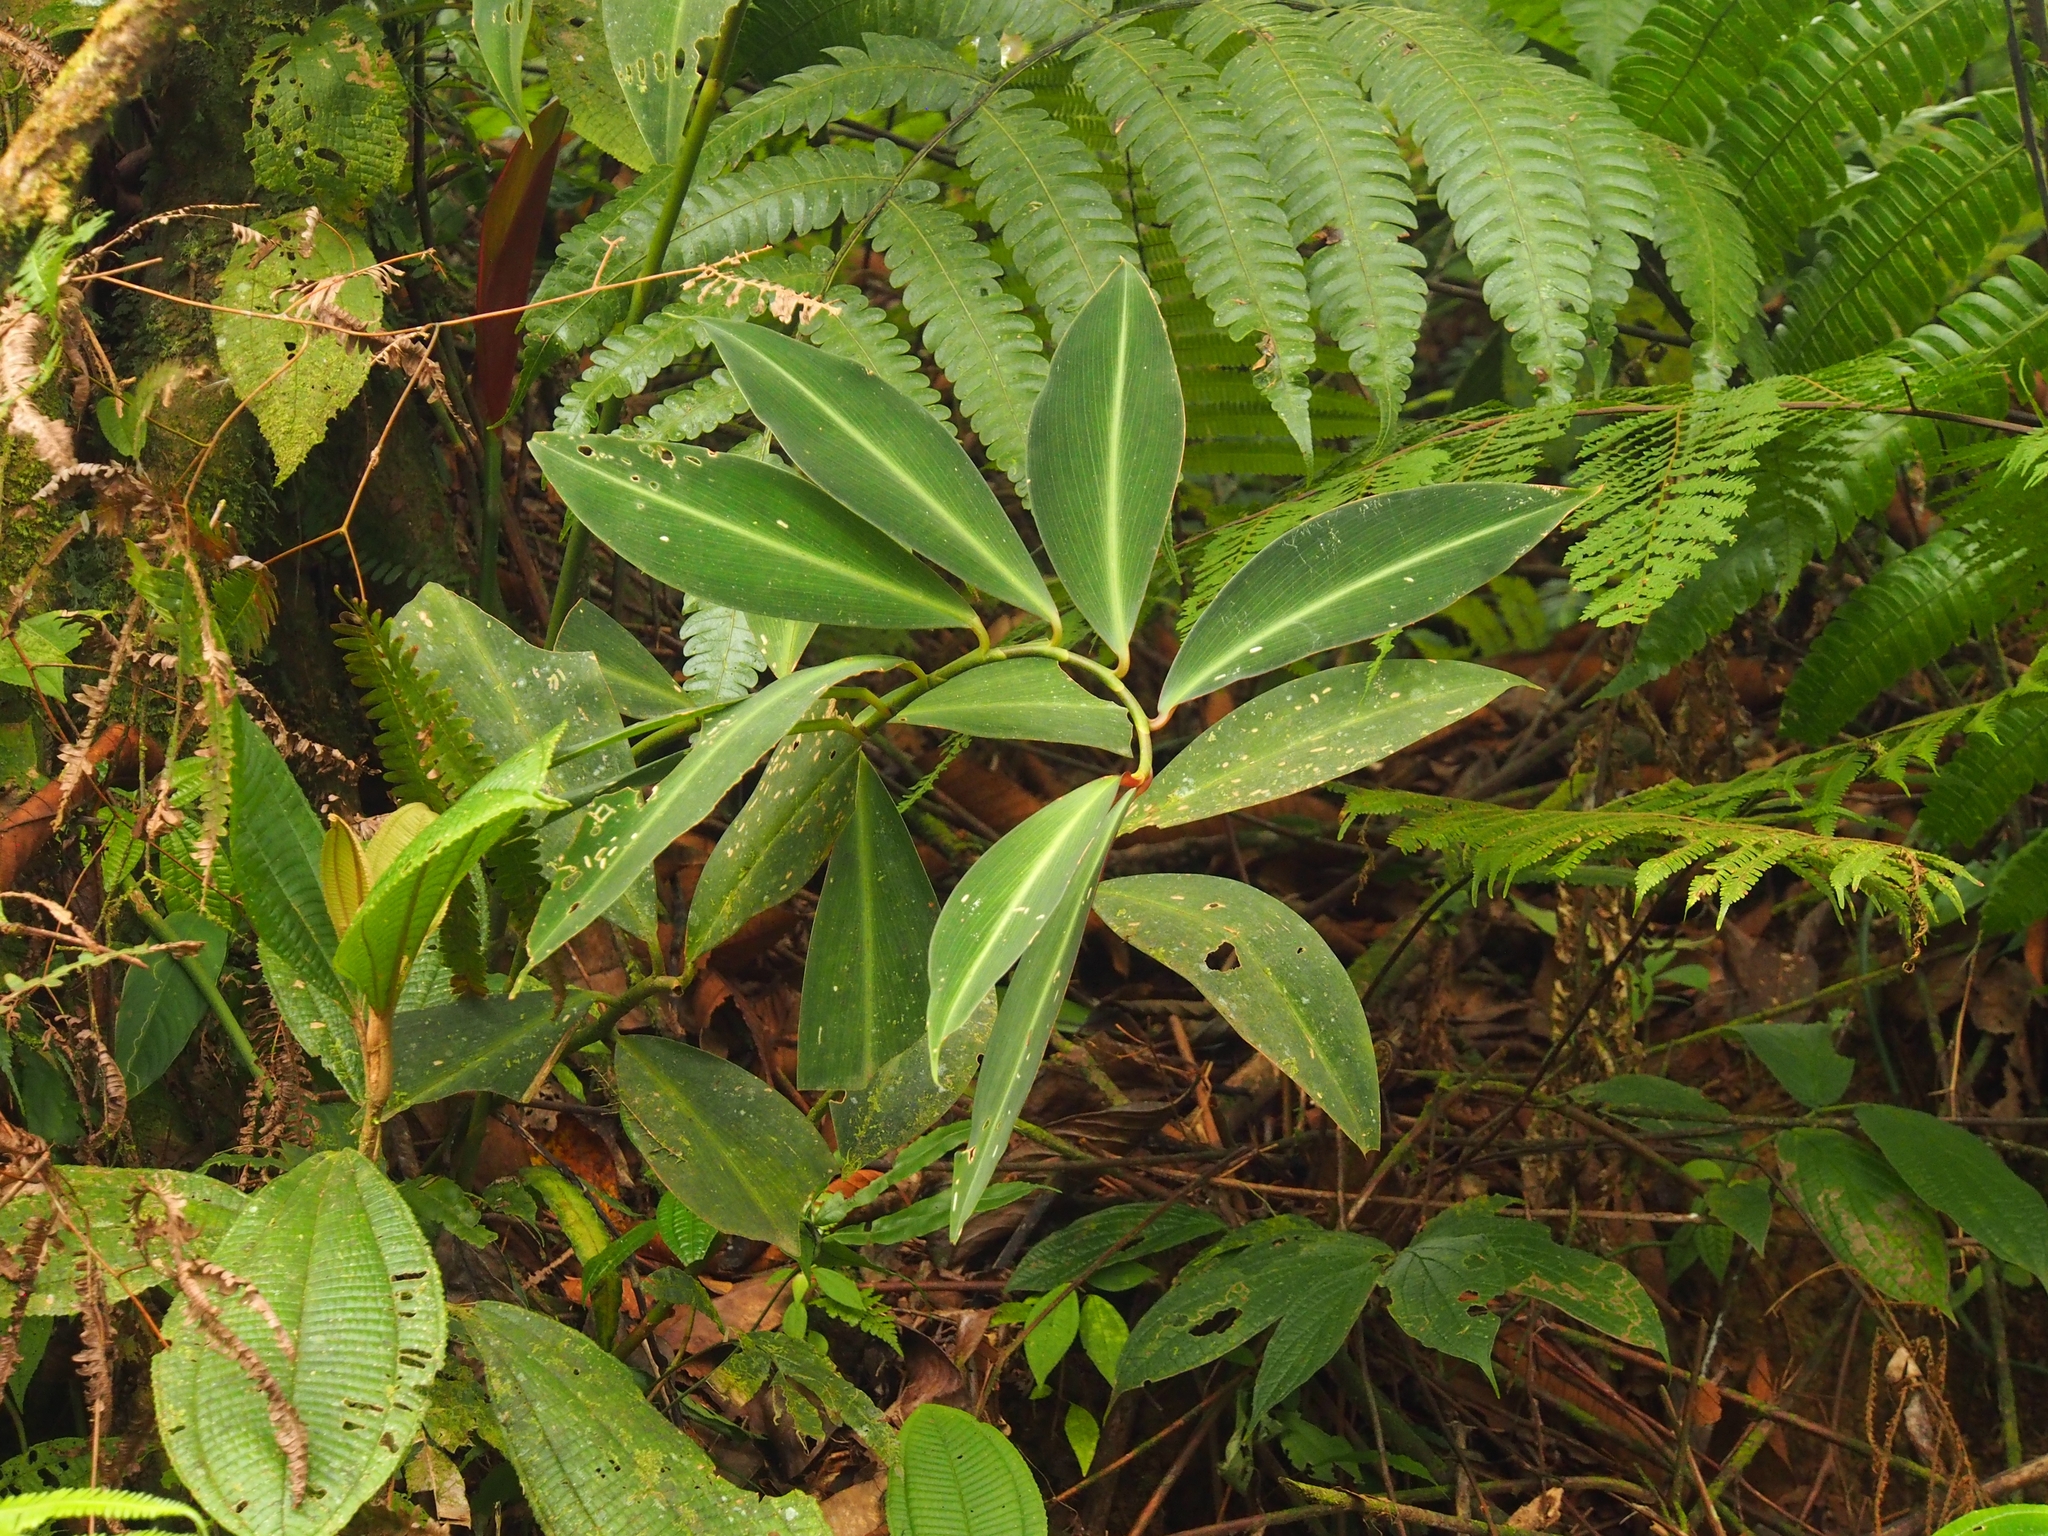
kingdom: Plantae
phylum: Tracheophyta
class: Liliopsida
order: Zingiberales
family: Costaceae
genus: Costus
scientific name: Costus laevis
